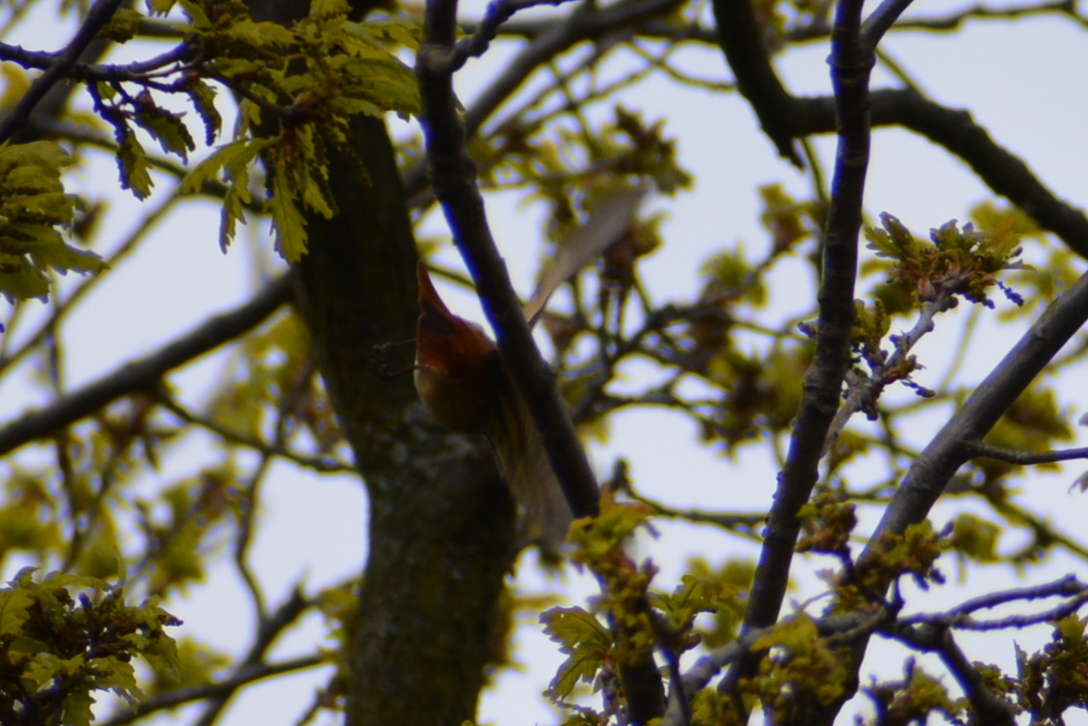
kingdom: Animalia
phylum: Chordata
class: Aves
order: Passeriformes
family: Muscicapidae
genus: Phoenicurus
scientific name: Phoenicurus phoenicurus
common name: Common redstart
